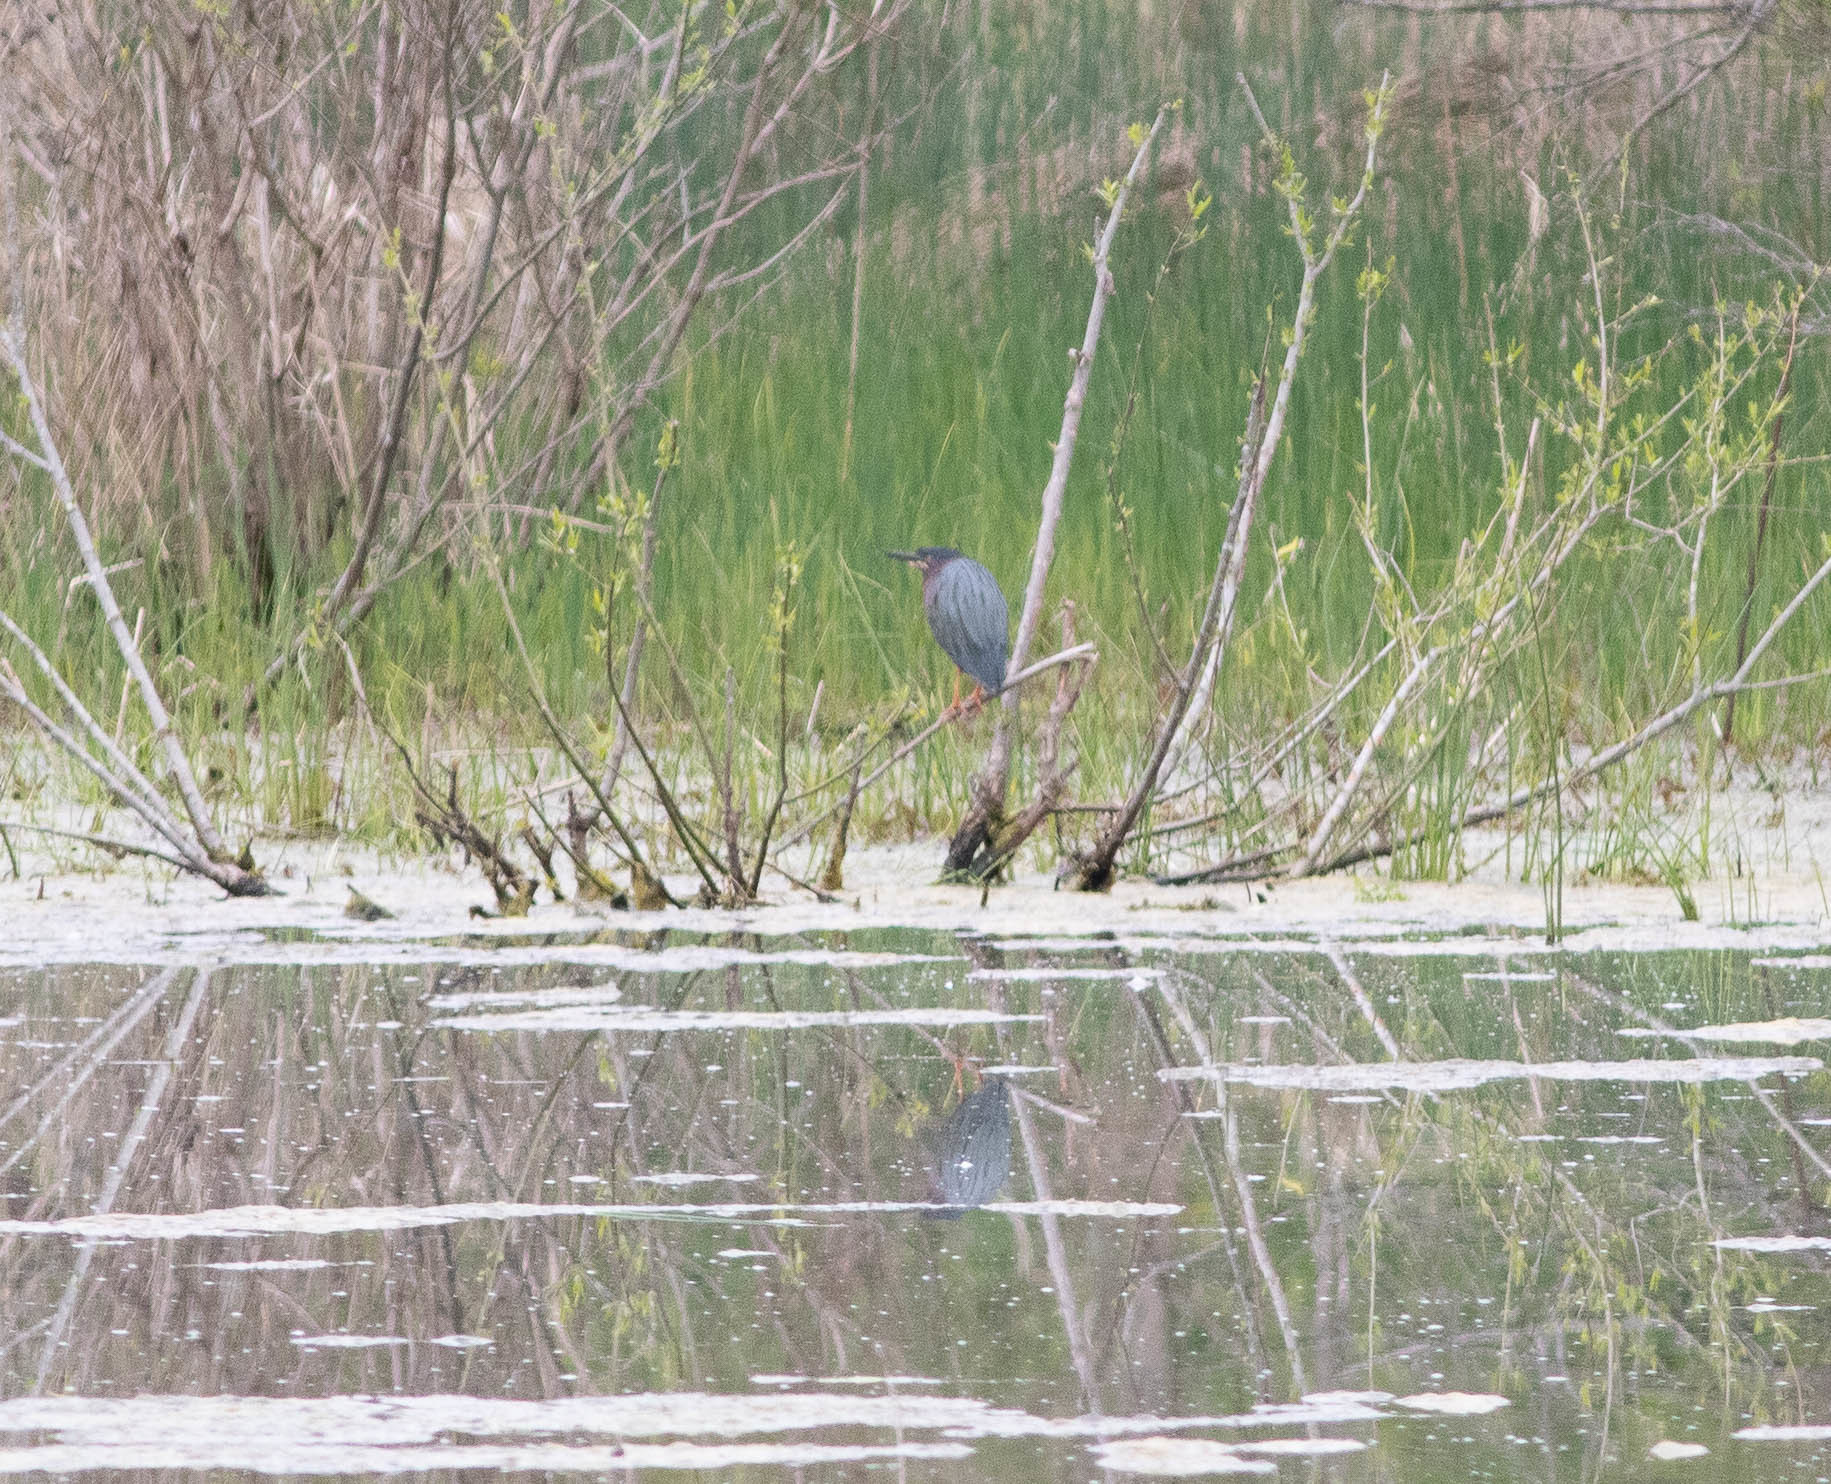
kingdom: Animalia
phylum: Chordata
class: Aves
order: Pelecaniformes
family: Ardeidae
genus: Butorides
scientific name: Butorides virescens
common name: Green heron
